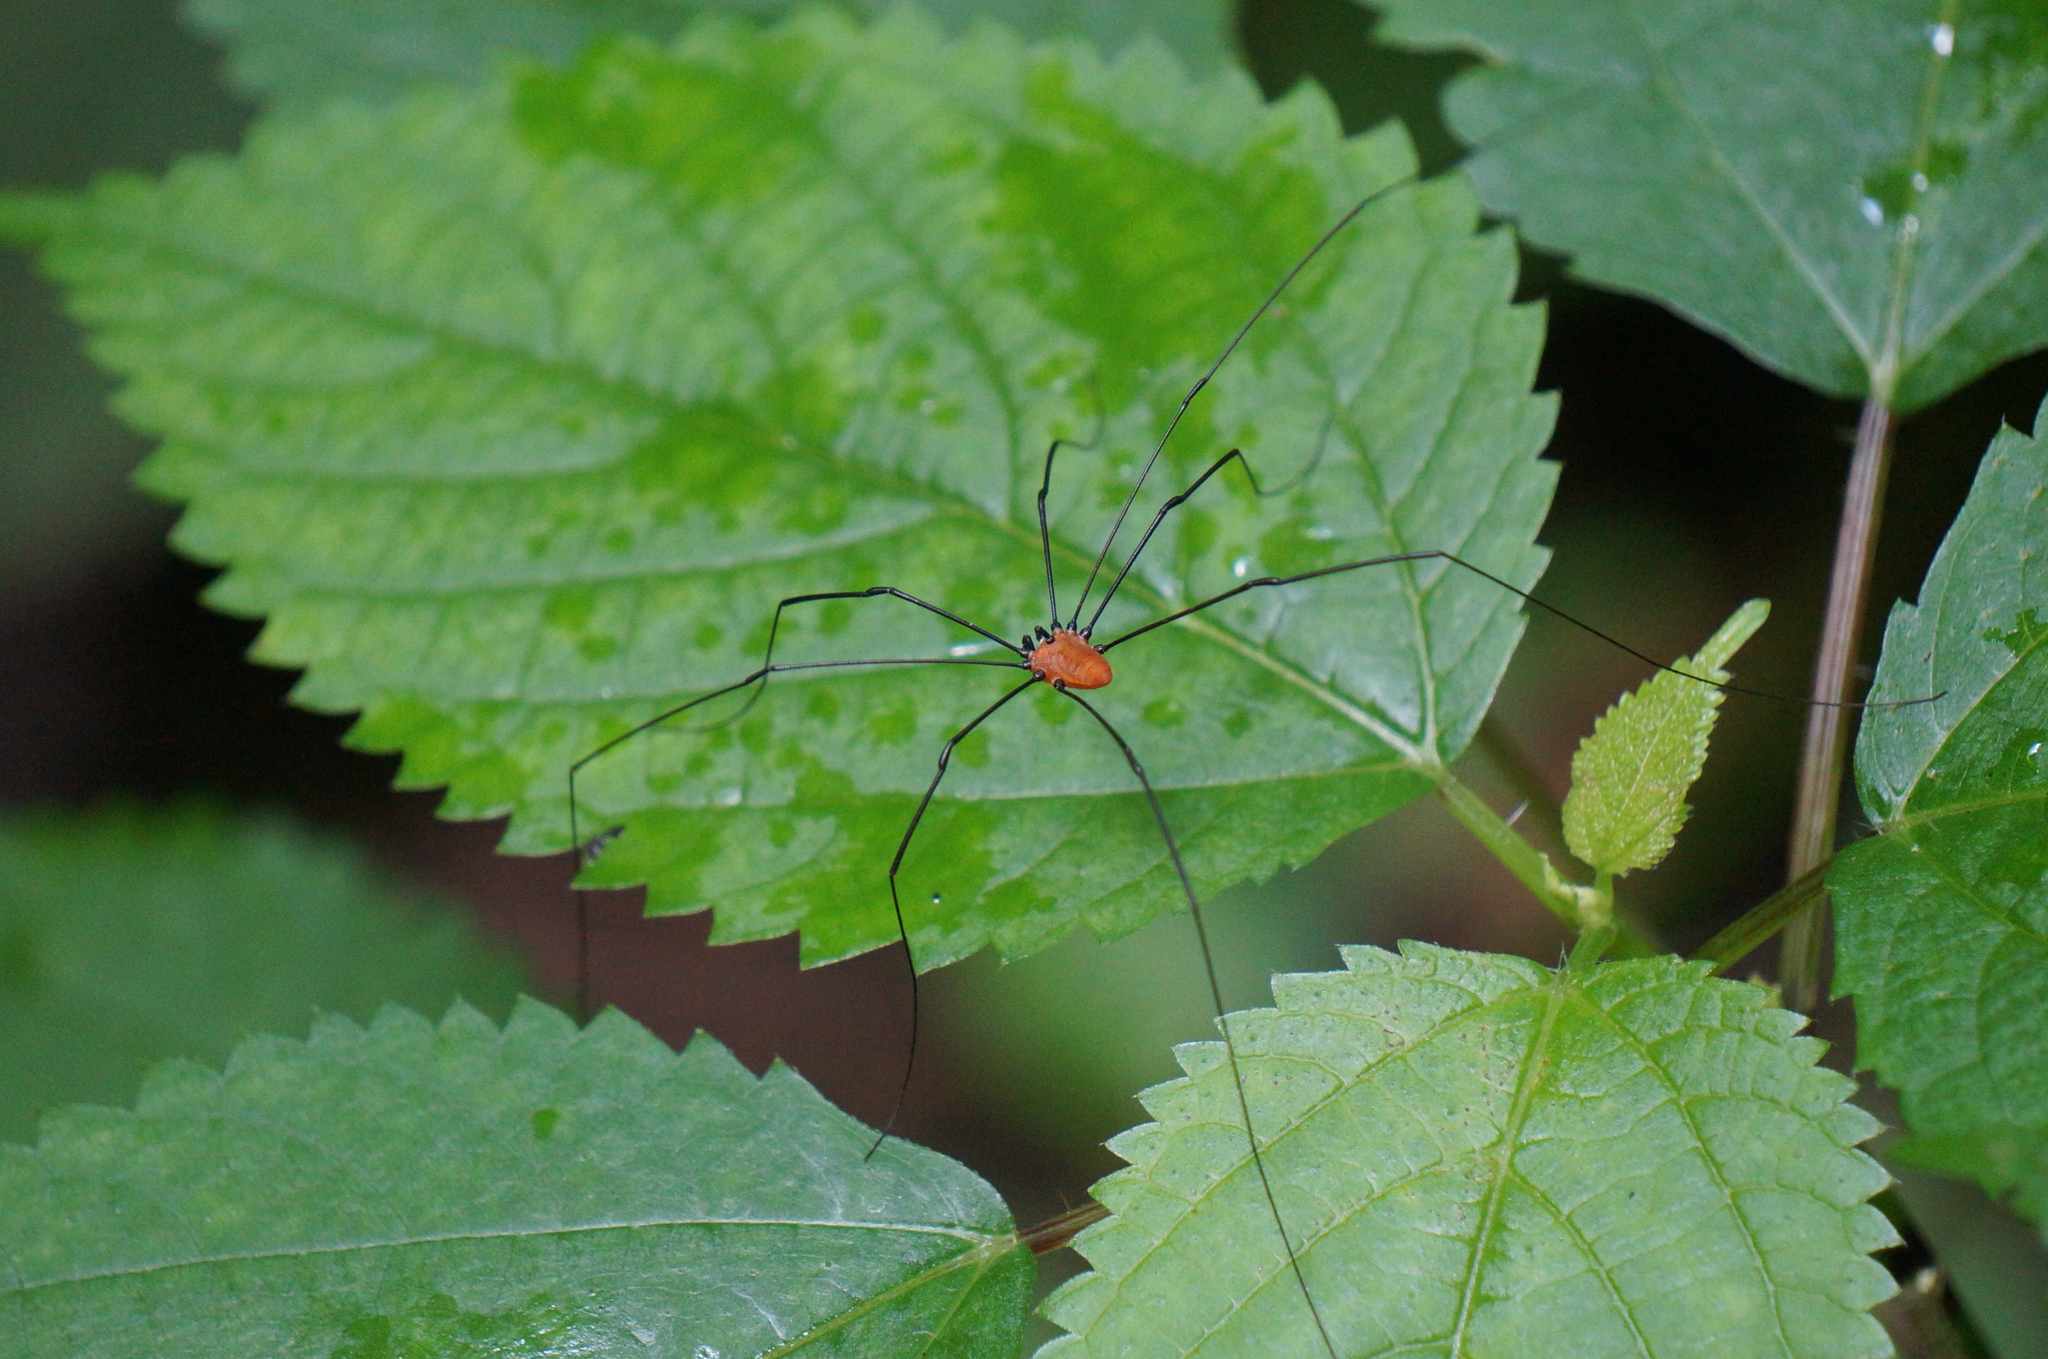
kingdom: Animalia
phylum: Arthropoda
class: Arachnida
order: Opiliones
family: Sclerosomatidae
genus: Leiobunum
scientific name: Leiobunum nigropalpi
